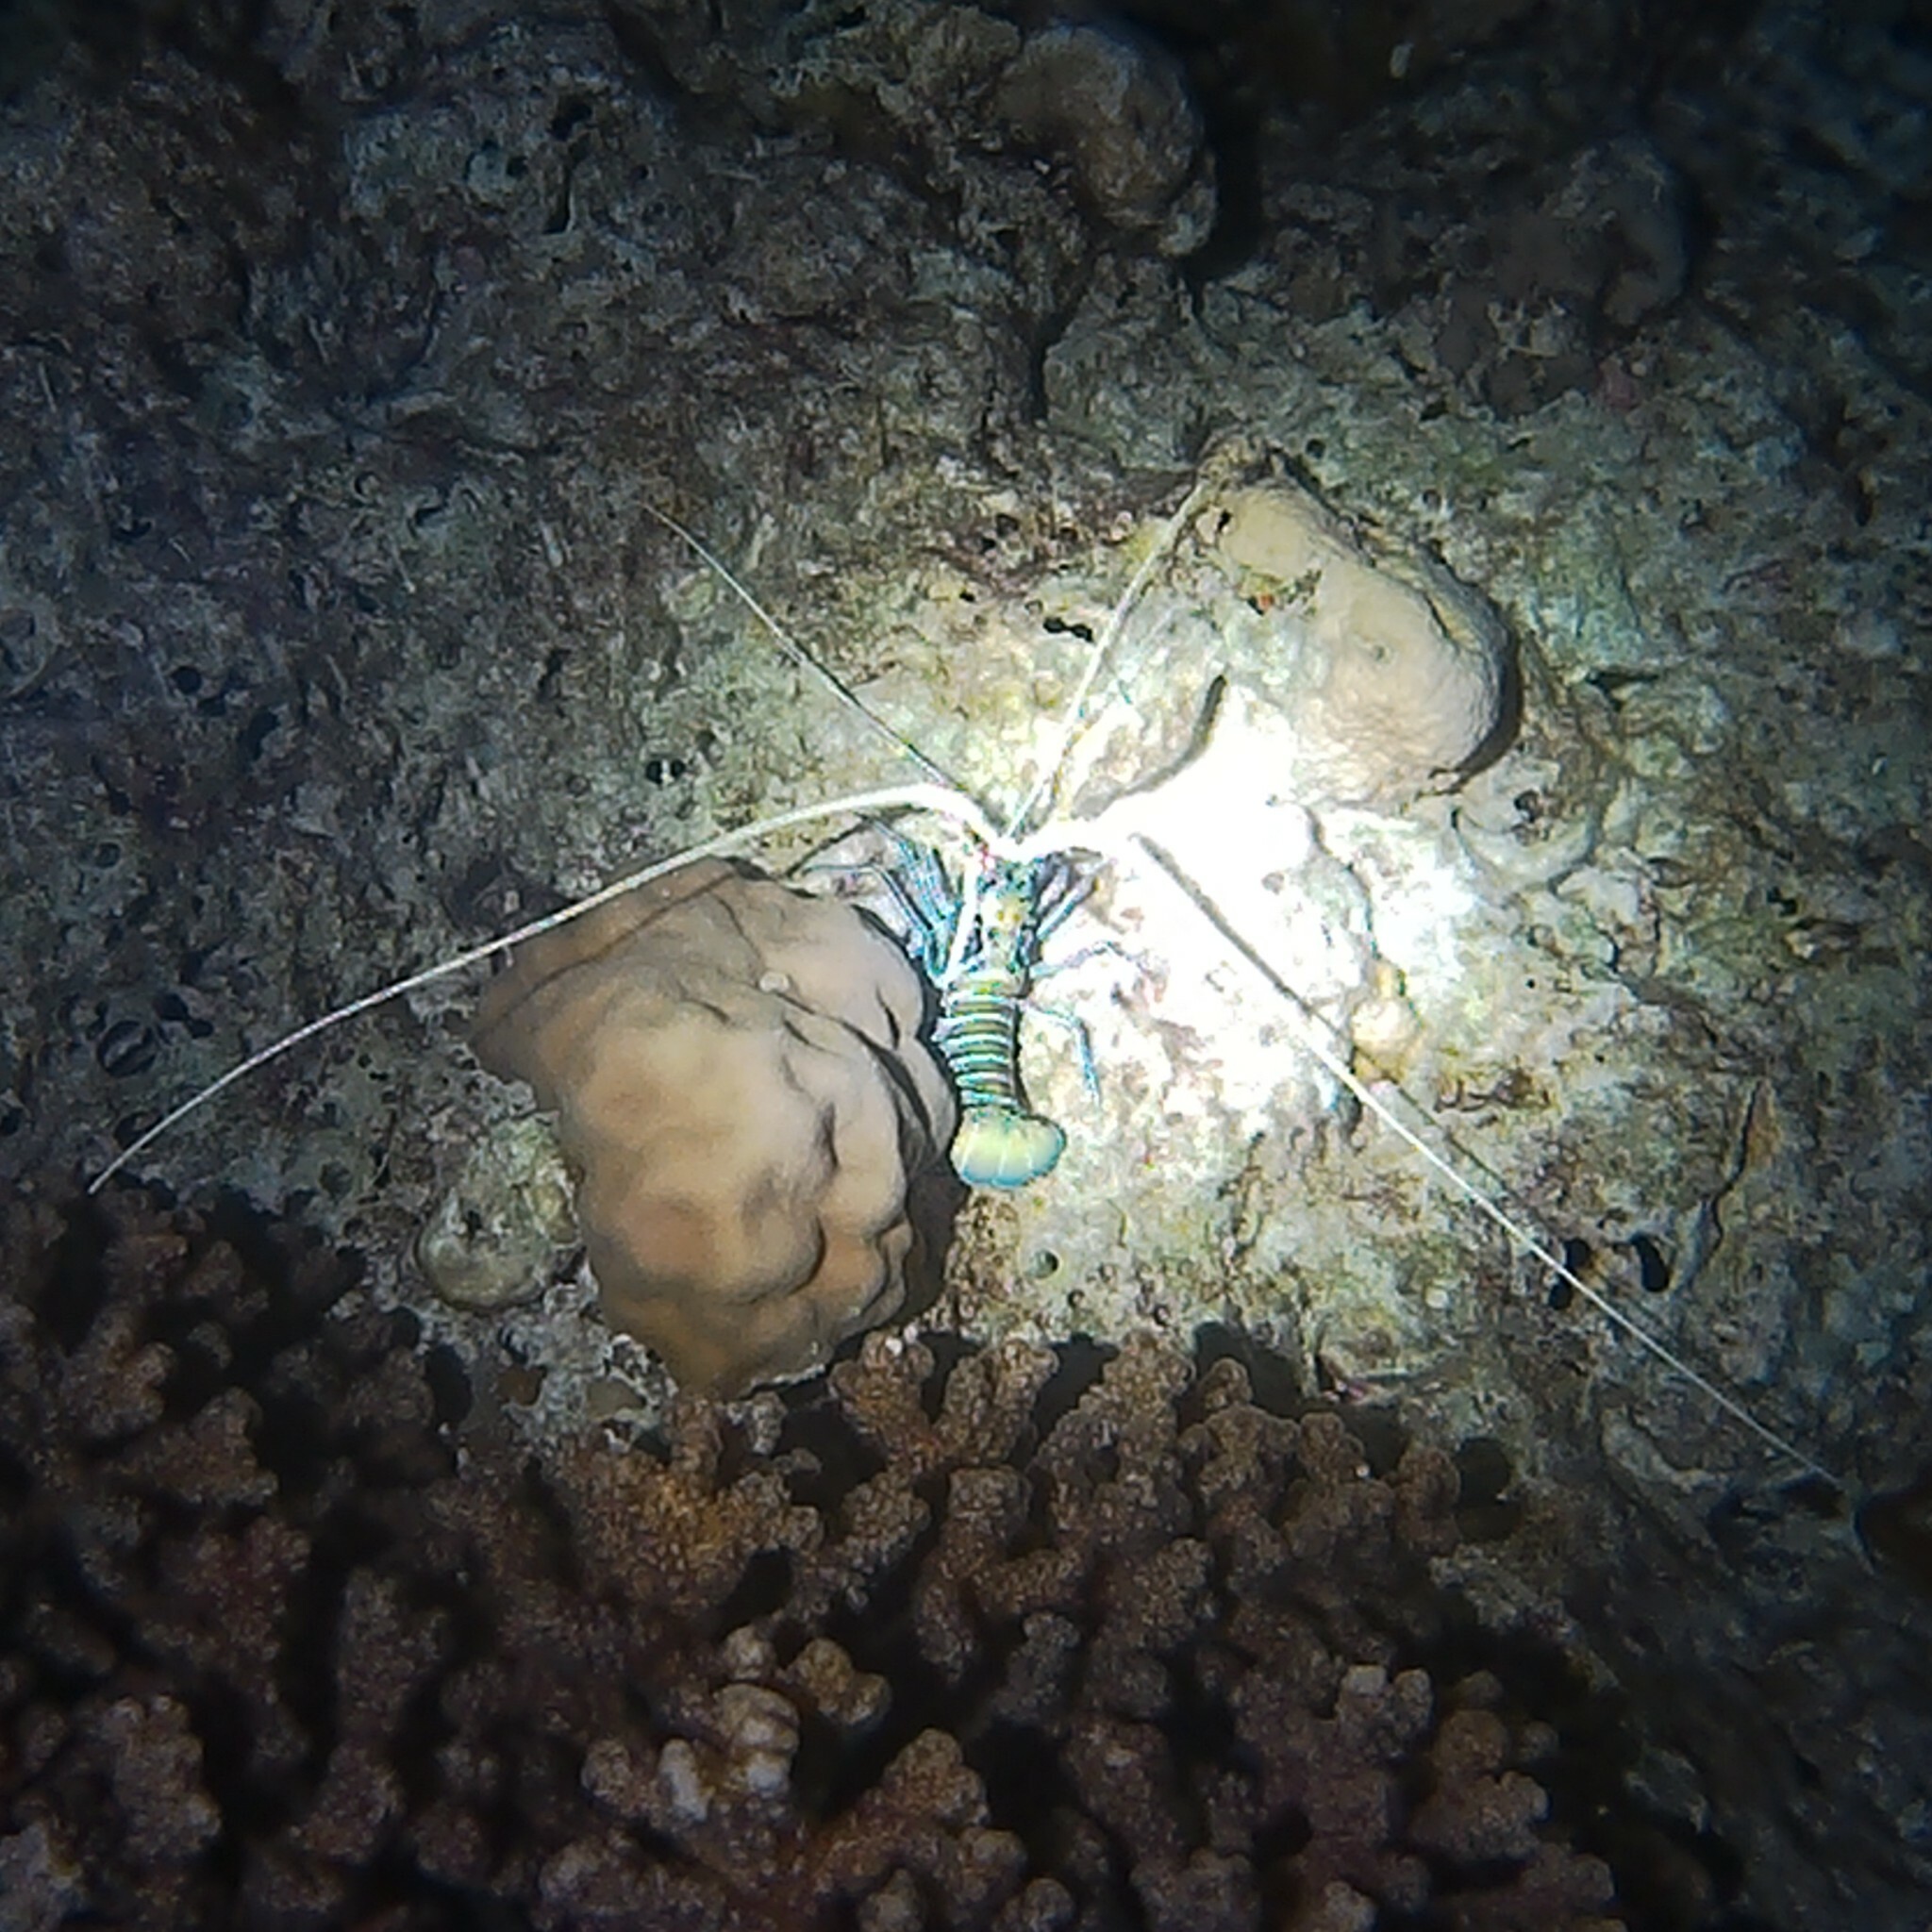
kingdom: Animalia
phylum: Arthropoda
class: Malacostraca
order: Decapoda
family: Palinuridae
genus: Panulirus
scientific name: Panulirus versicolor
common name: Painted spiny lobster
